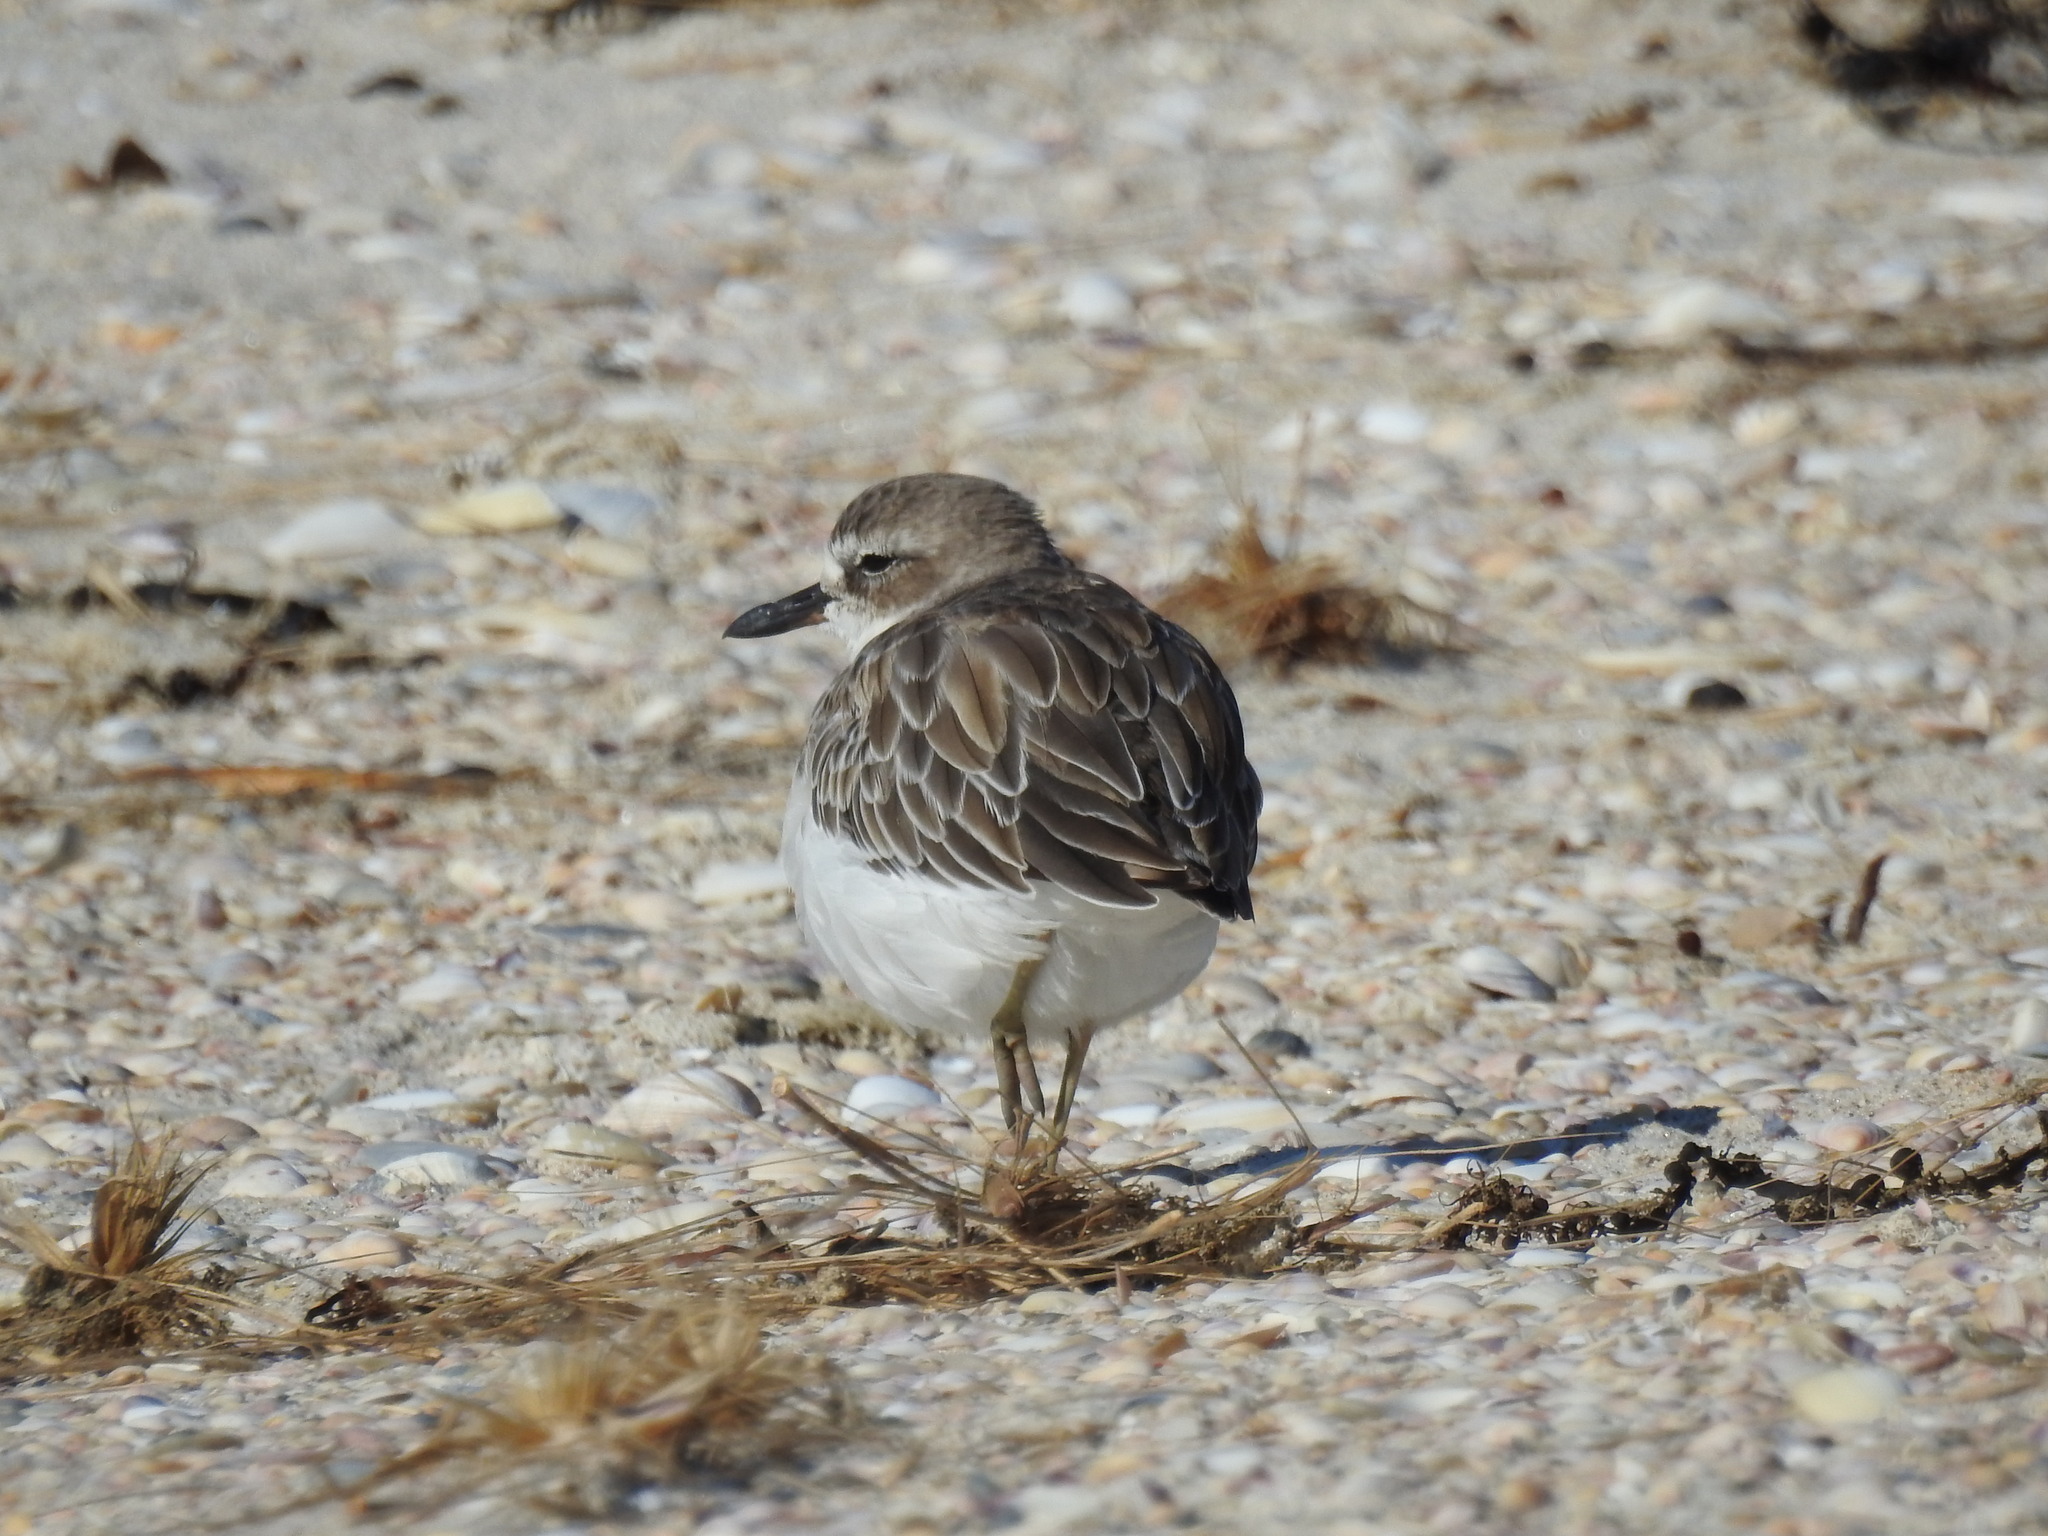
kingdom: Animalia
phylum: Chordata
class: Aves
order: Charadriiformes
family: Charadriidae
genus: Anarhynchus
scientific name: Anarhynchus
